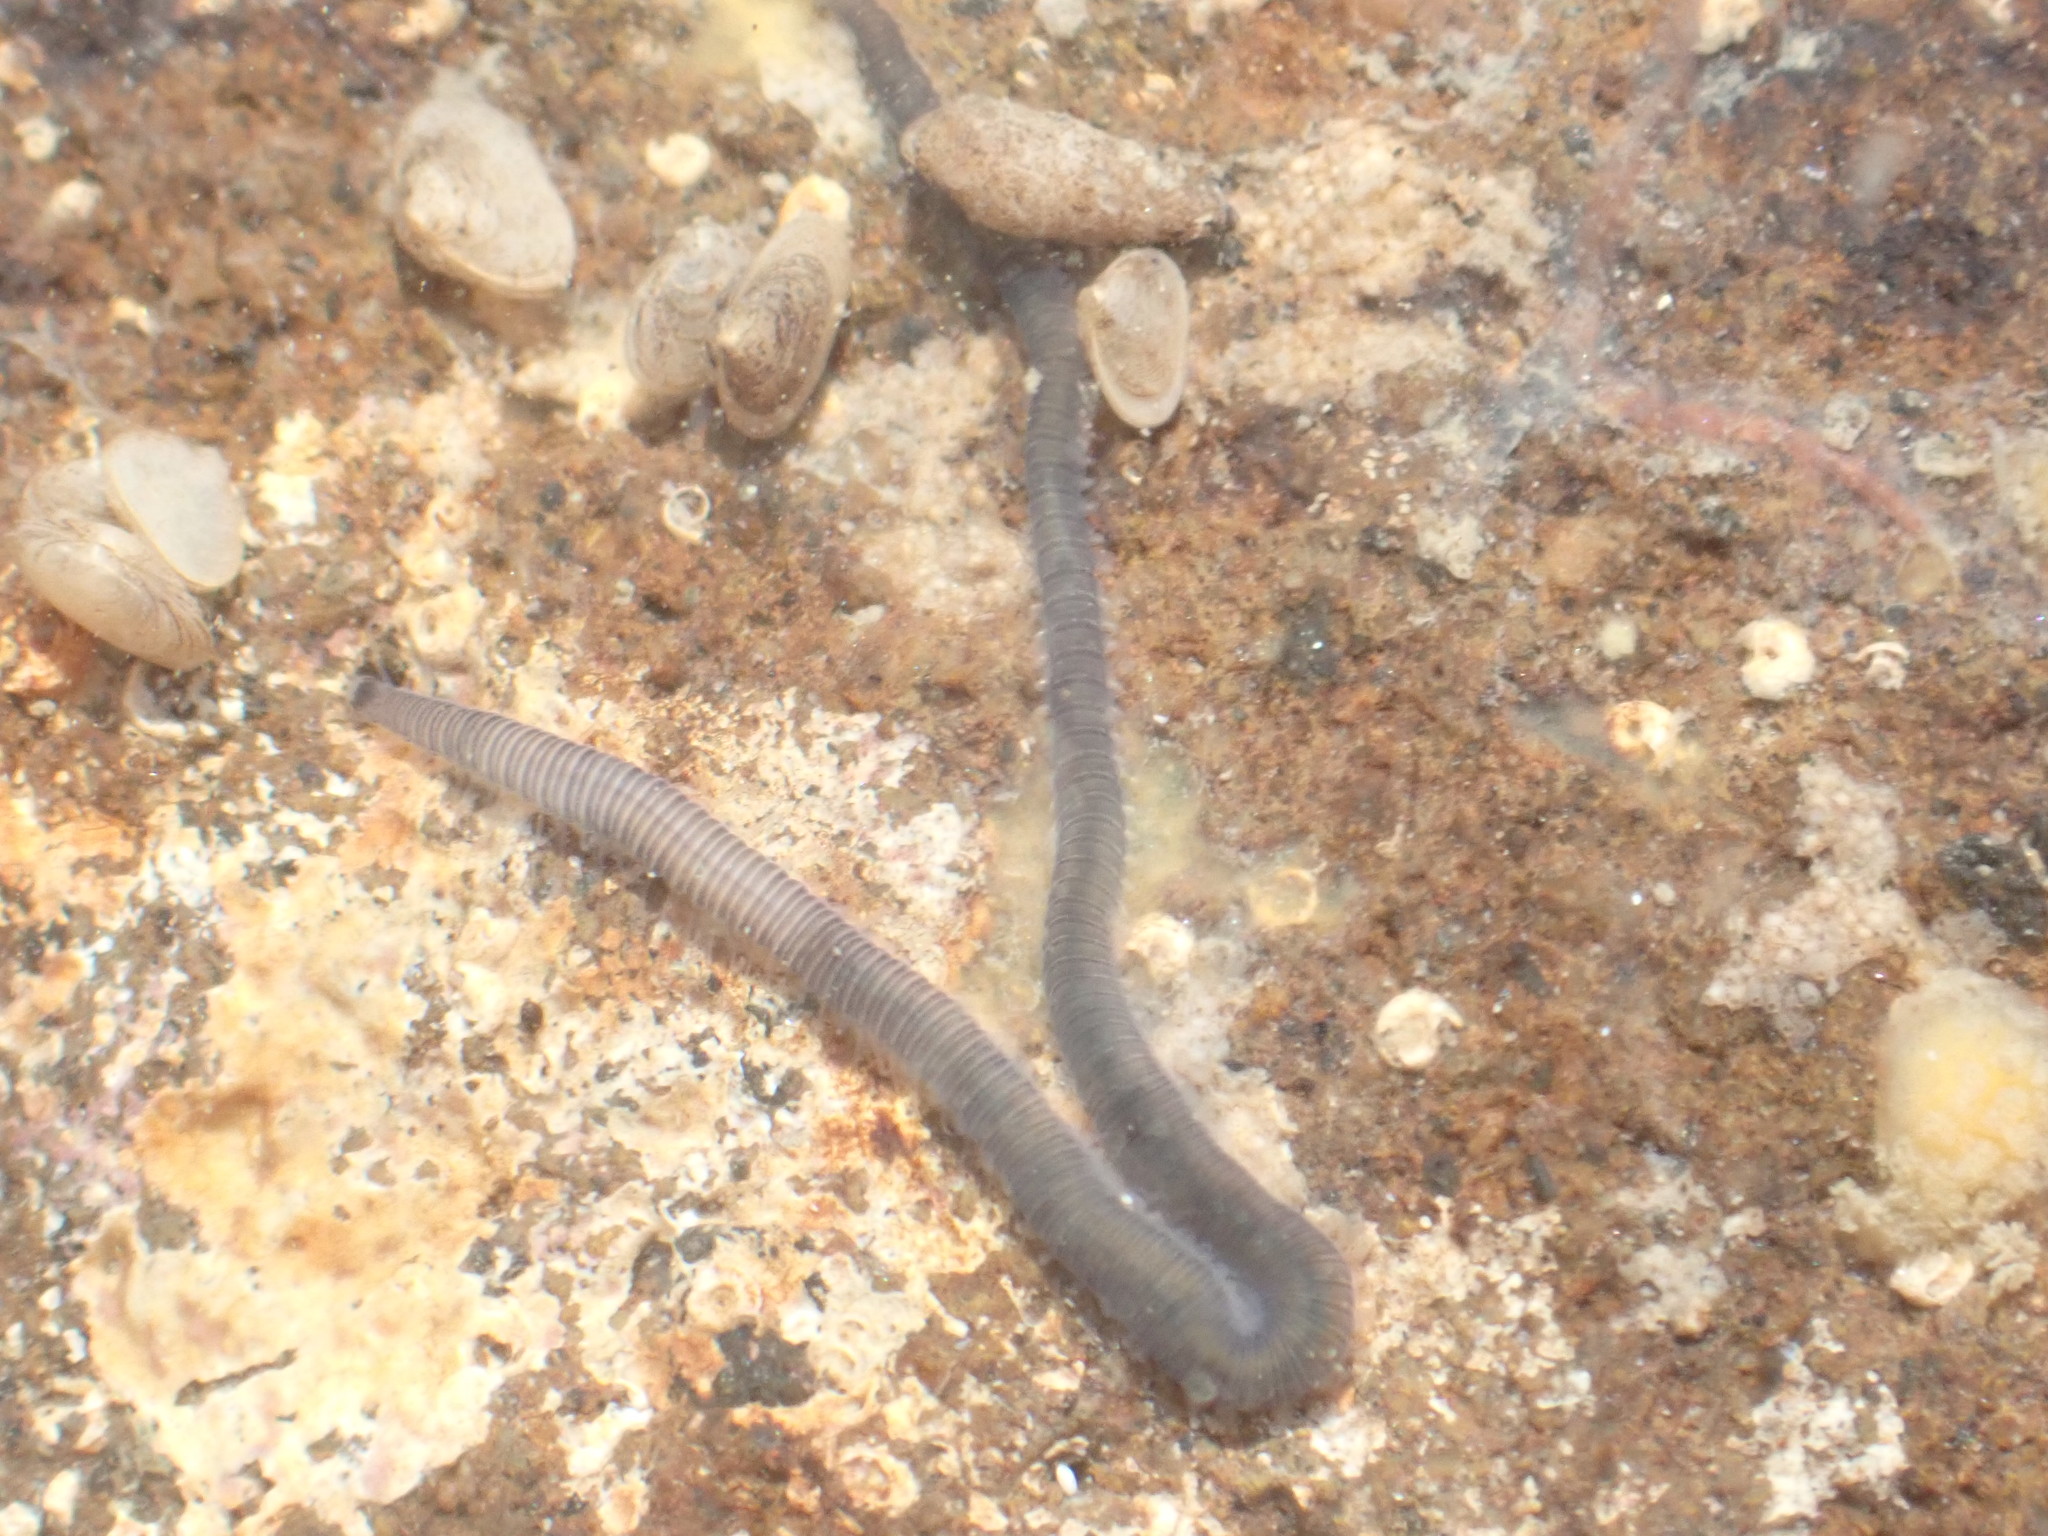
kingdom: Animalia
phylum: Annelida
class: Polychaeta
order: Phyllodocida
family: Syllidae
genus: Odontosyllis
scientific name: Odontosyllis polycera
